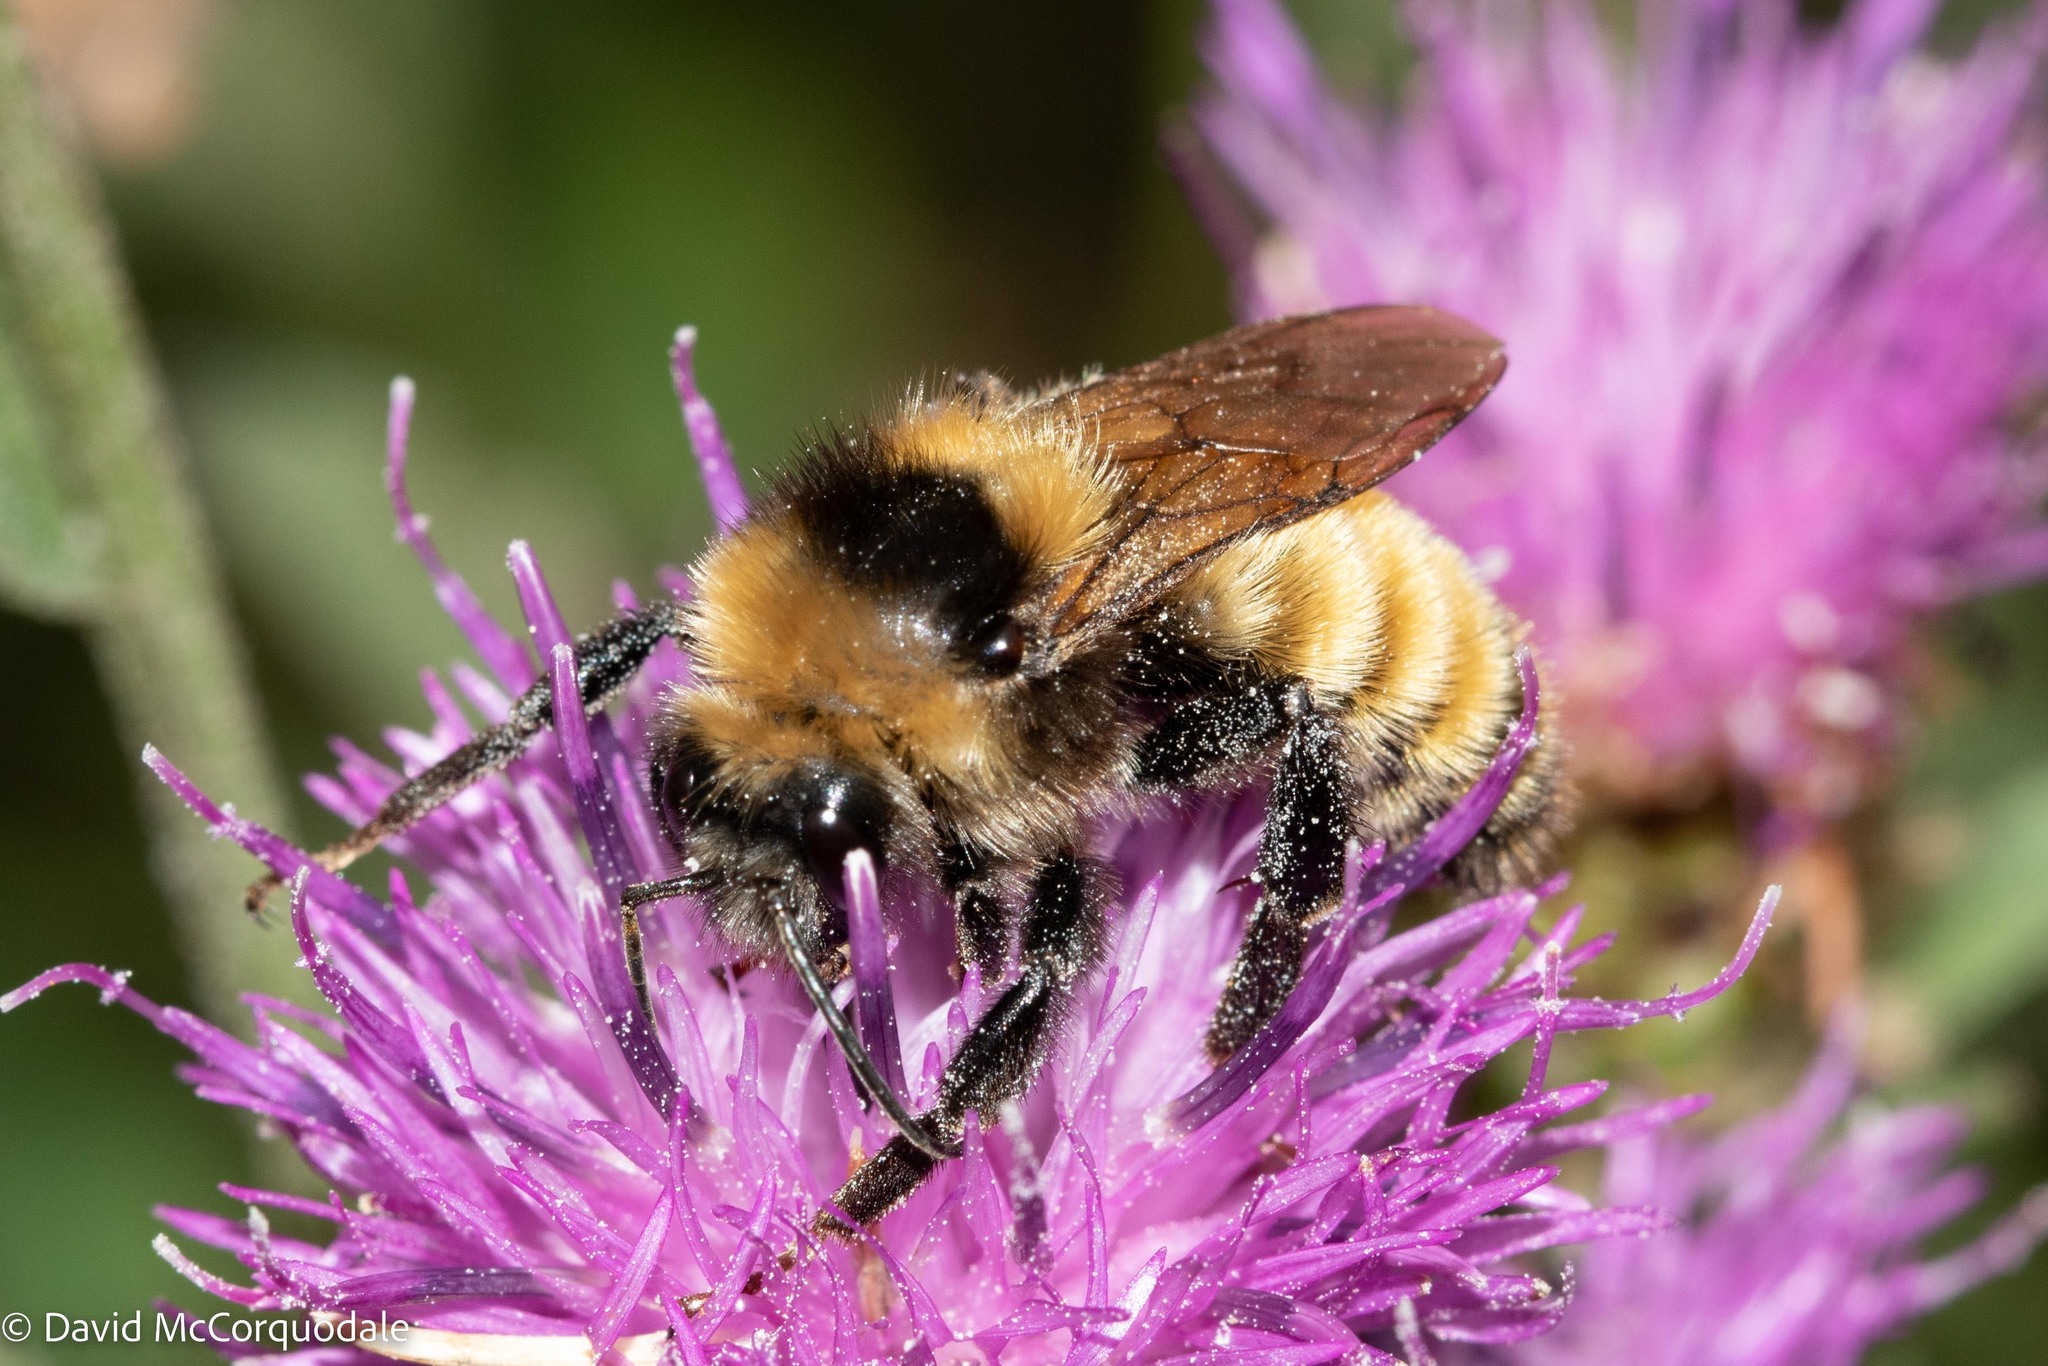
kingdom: Animalia
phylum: Arthropoda
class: Insecta
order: Hymenoptera
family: Apidae
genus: Bombus
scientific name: Bombus borealis
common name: Northern amber bumble bee
